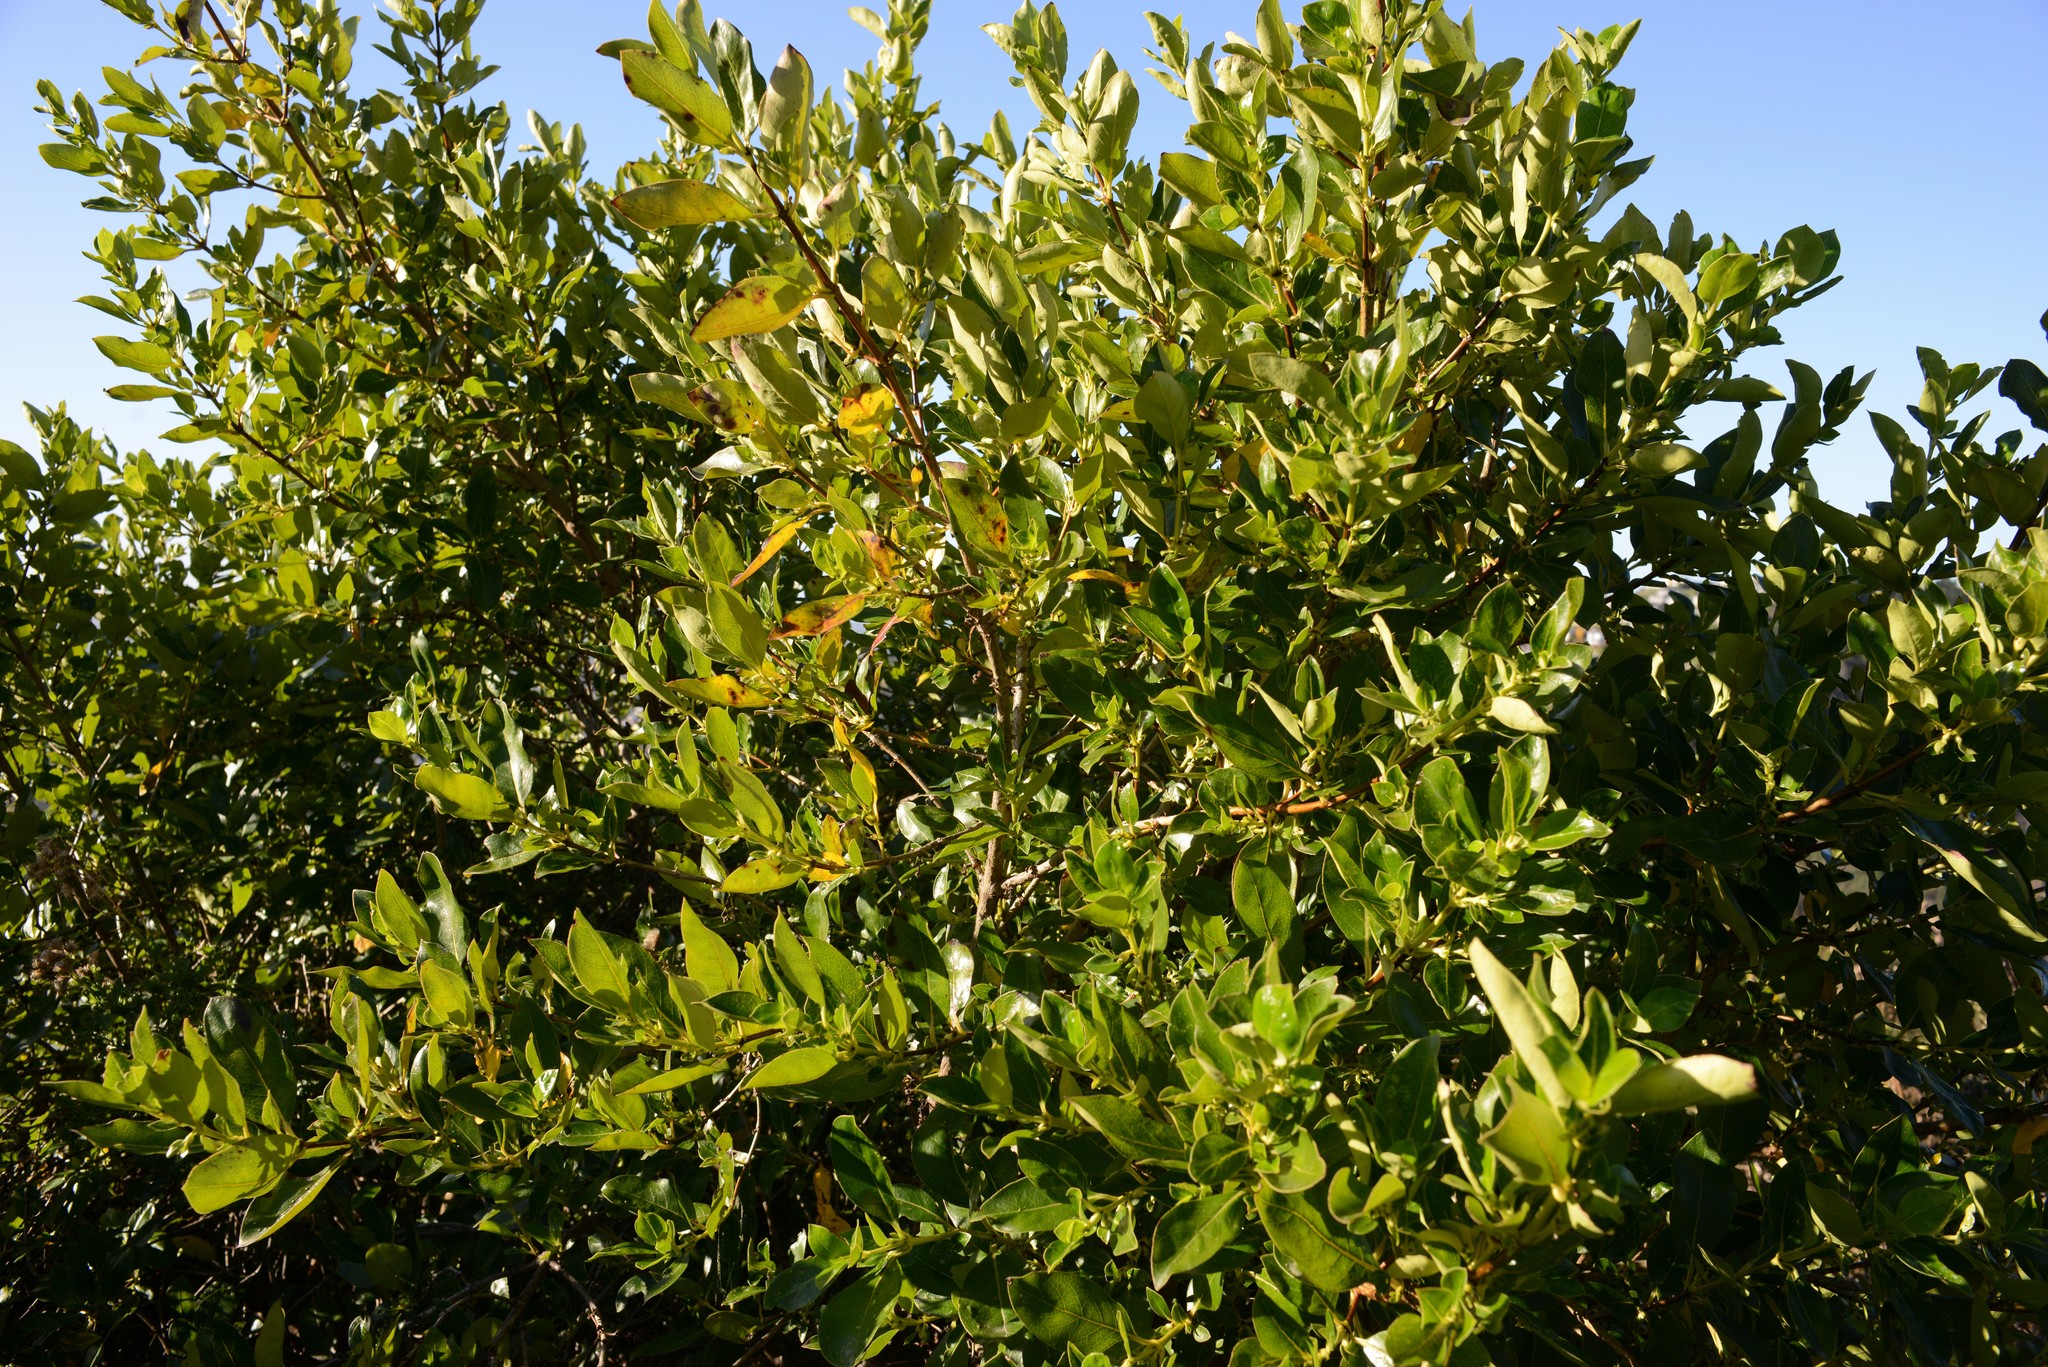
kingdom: Plantae
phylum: Tracheophyta
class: Magnoliopsida
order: Gentianales
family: Rubiaceae
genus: Coprosma
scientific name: Coprosma robusta
